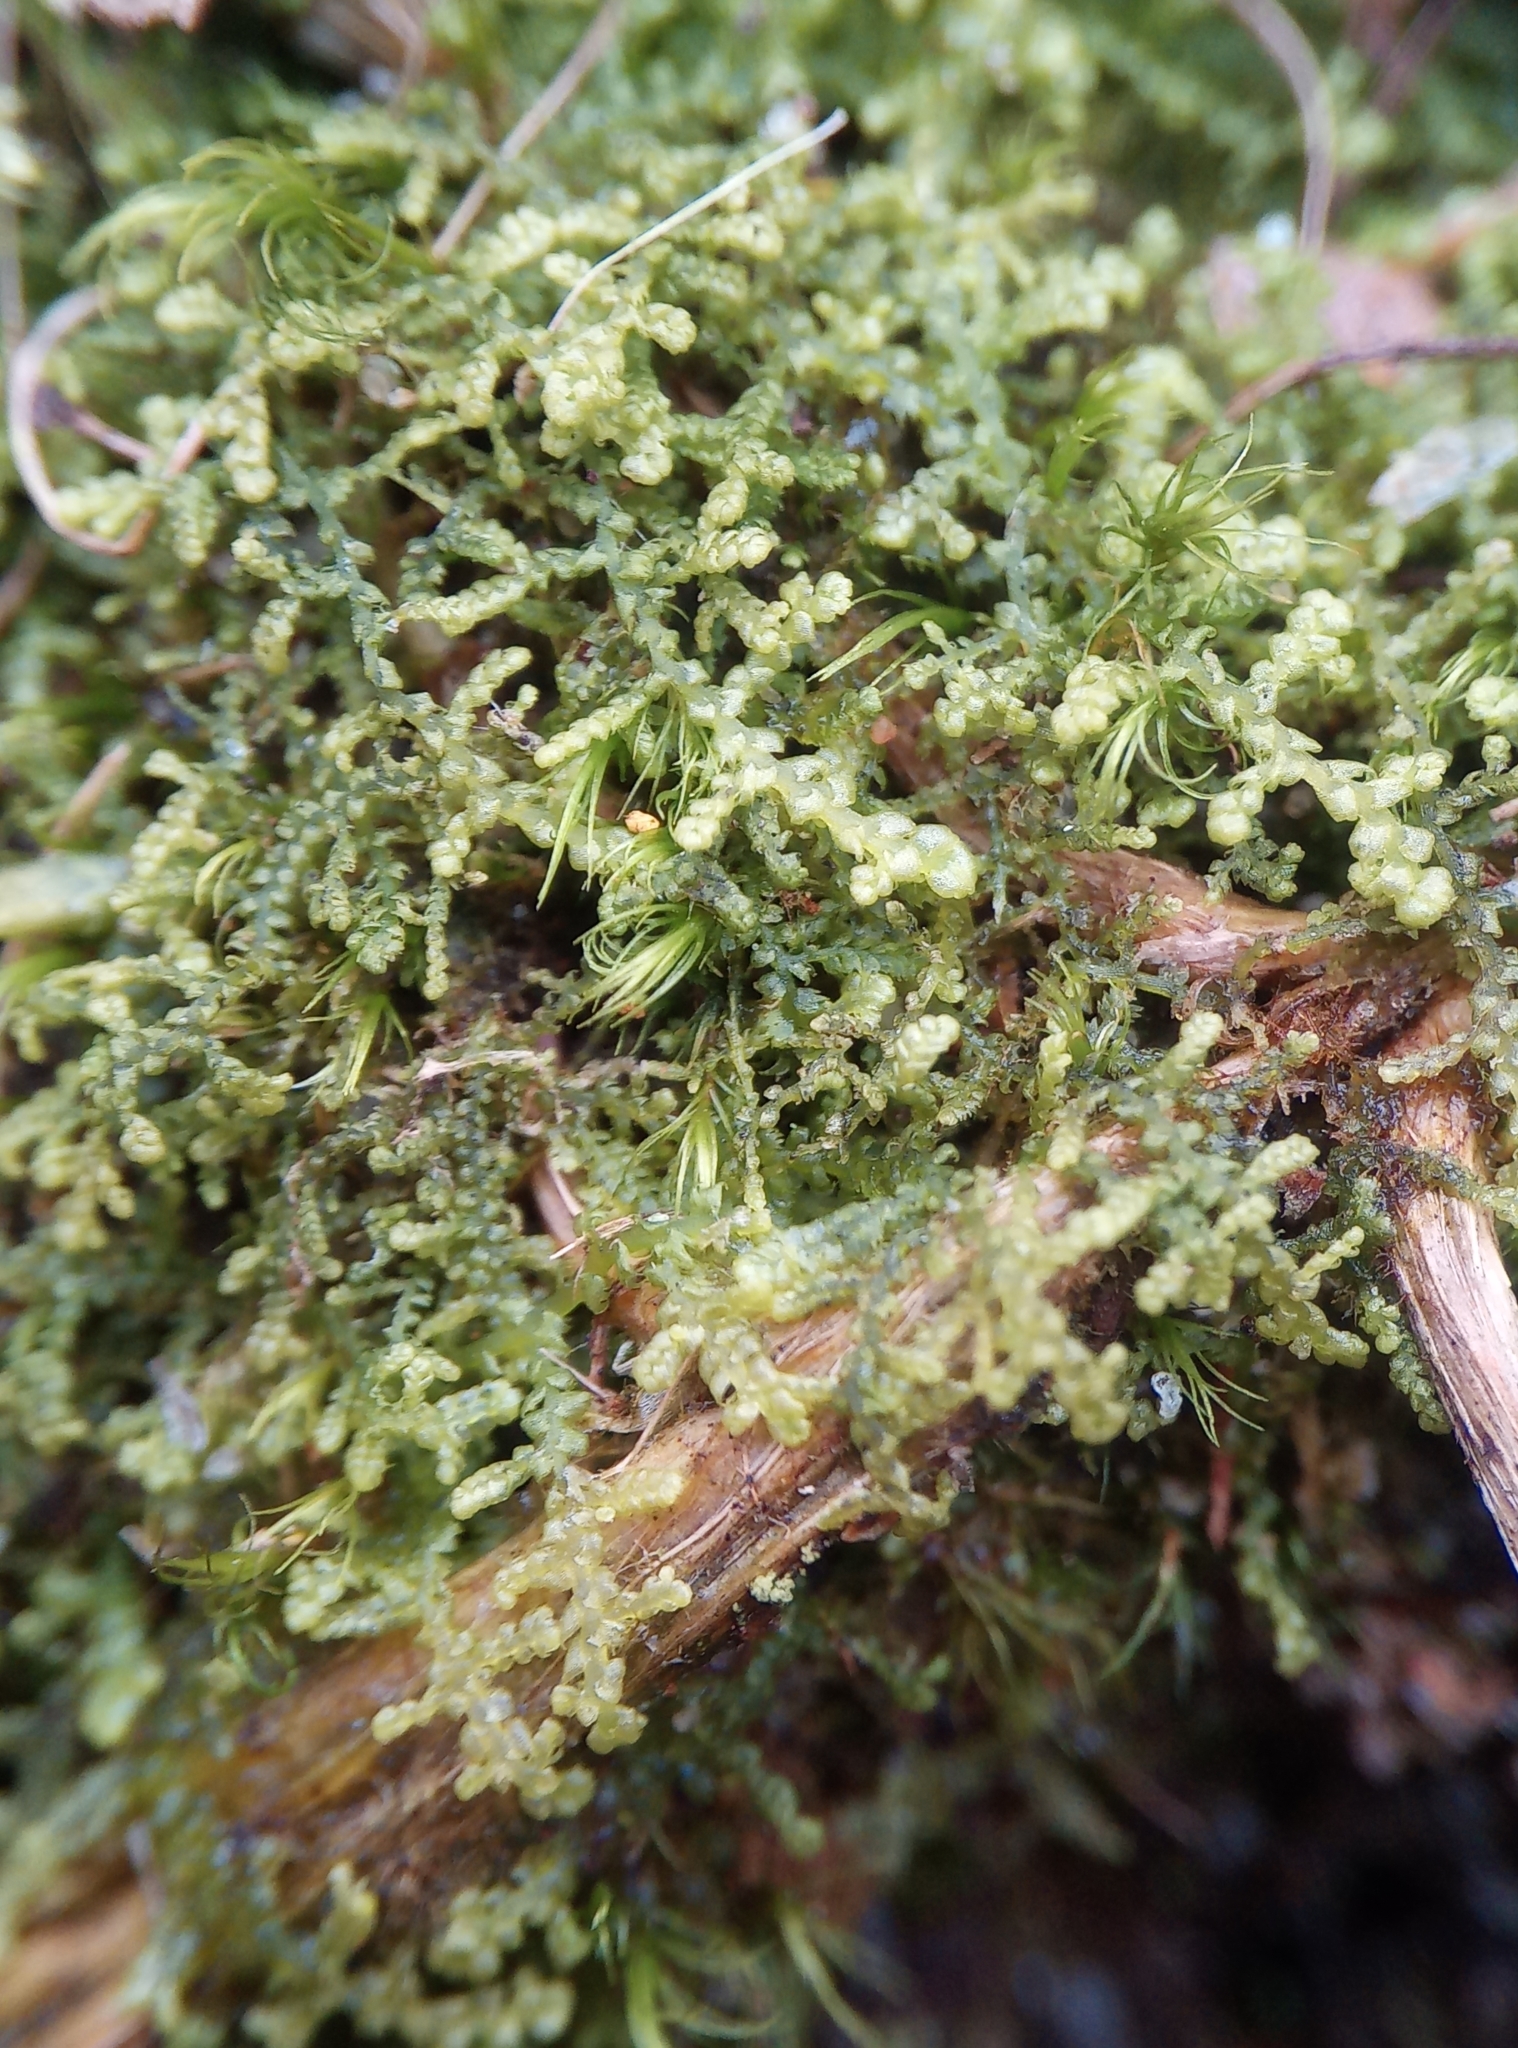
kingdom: Plantae
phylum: Marchantiophyta
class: Jungermanniopsida
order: Jungermanniales
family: Lepidoziaceae
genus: Lepidozia
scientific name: Lepidozia reptans
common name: Creeping fingerwort
